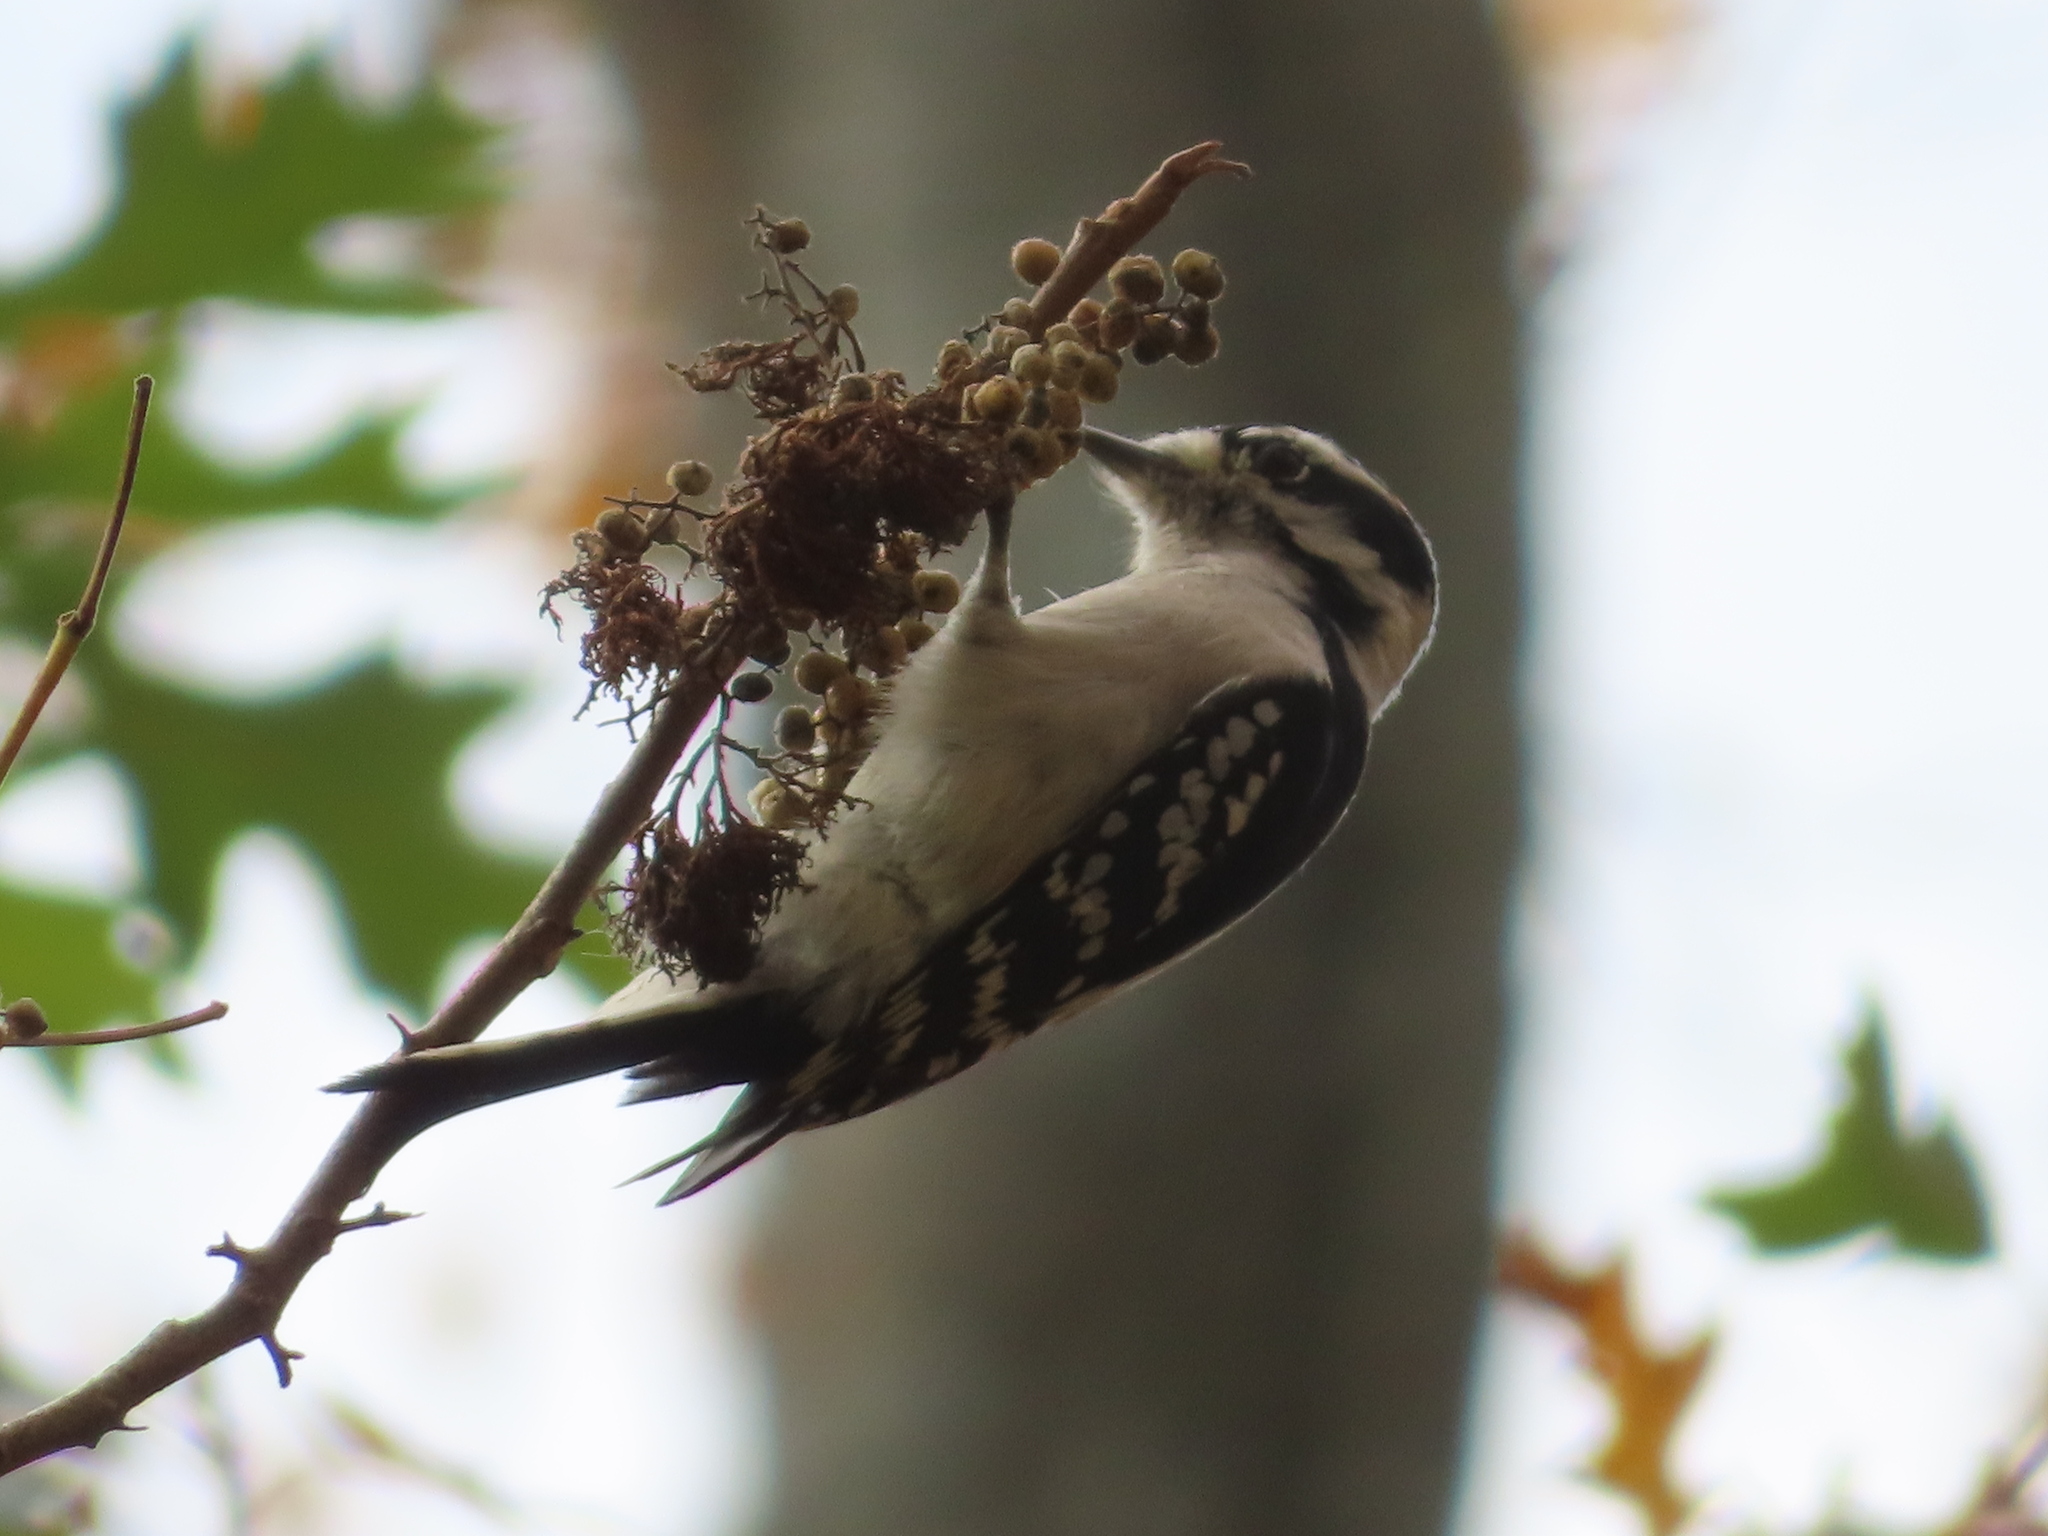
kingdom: Animalia
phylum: Chordata
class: Aves
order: Piciformes
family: Picidae
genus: Dryobates
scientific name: Dryobates pubescens
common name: Downy woodpecker
